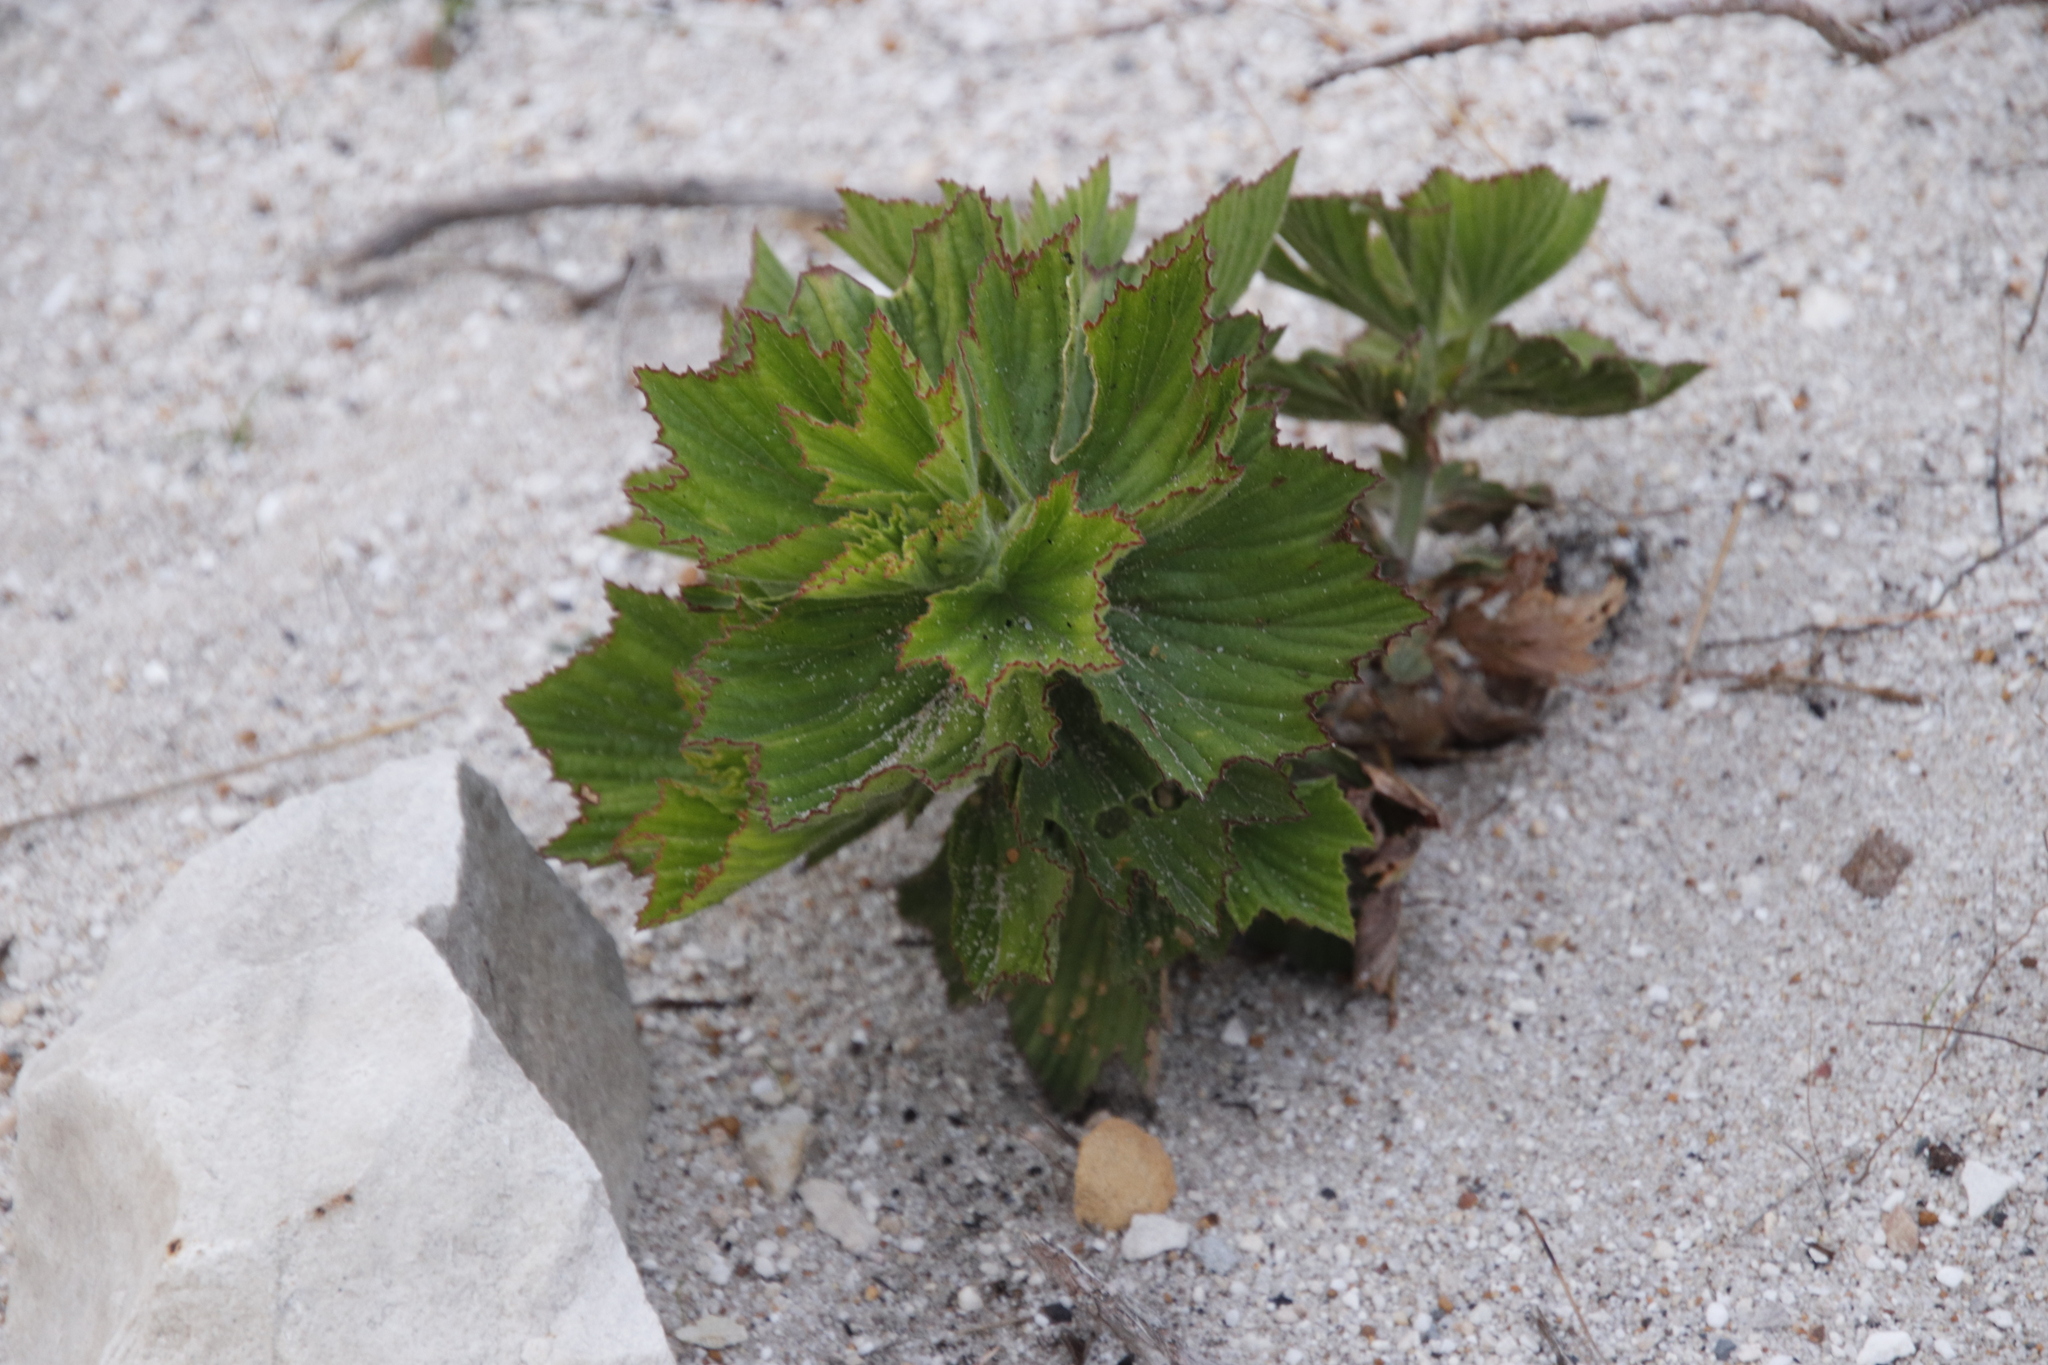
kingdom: Plantae
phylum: Tracheophyta
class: Magnoliopsida
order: Geraniales
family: Geraniaceae
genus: Pelargonium
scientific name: Pelargonium cucullatum
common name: Tree pelargonium
